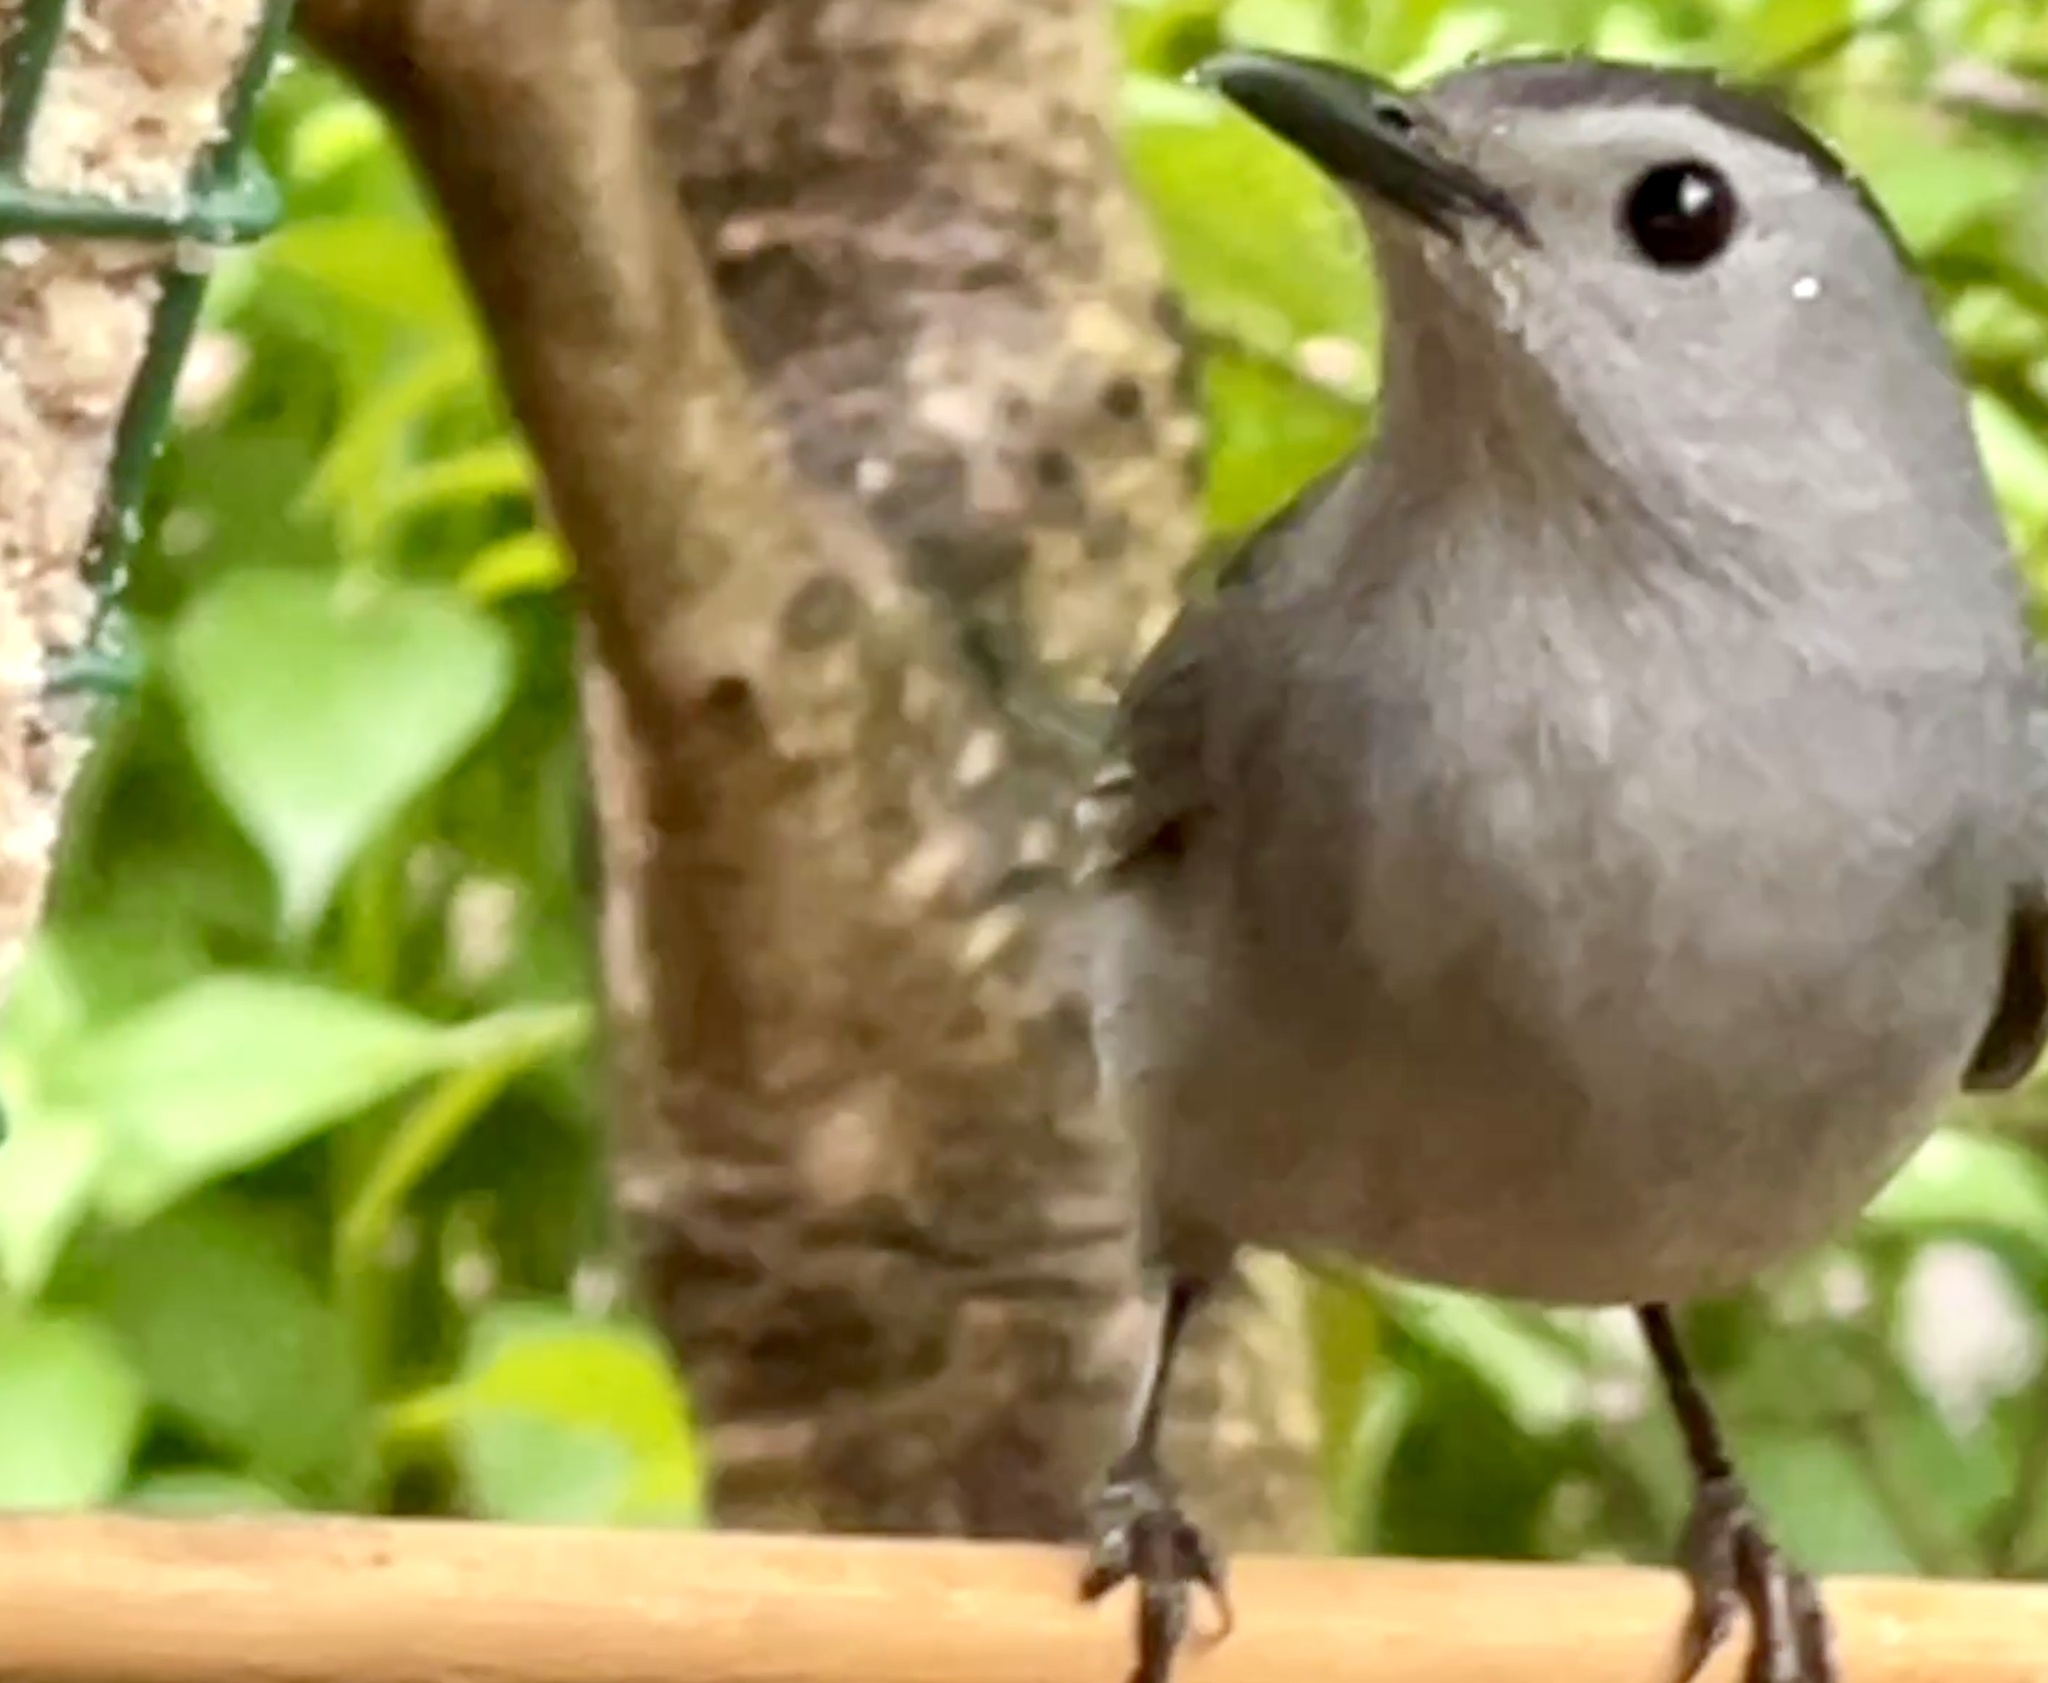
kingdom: Animalia
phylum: Chordata
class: Aves
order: Passeriformes
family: Mimidae
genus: Dumetella
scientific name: Dumetella carolinensis
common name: Gray catbird
